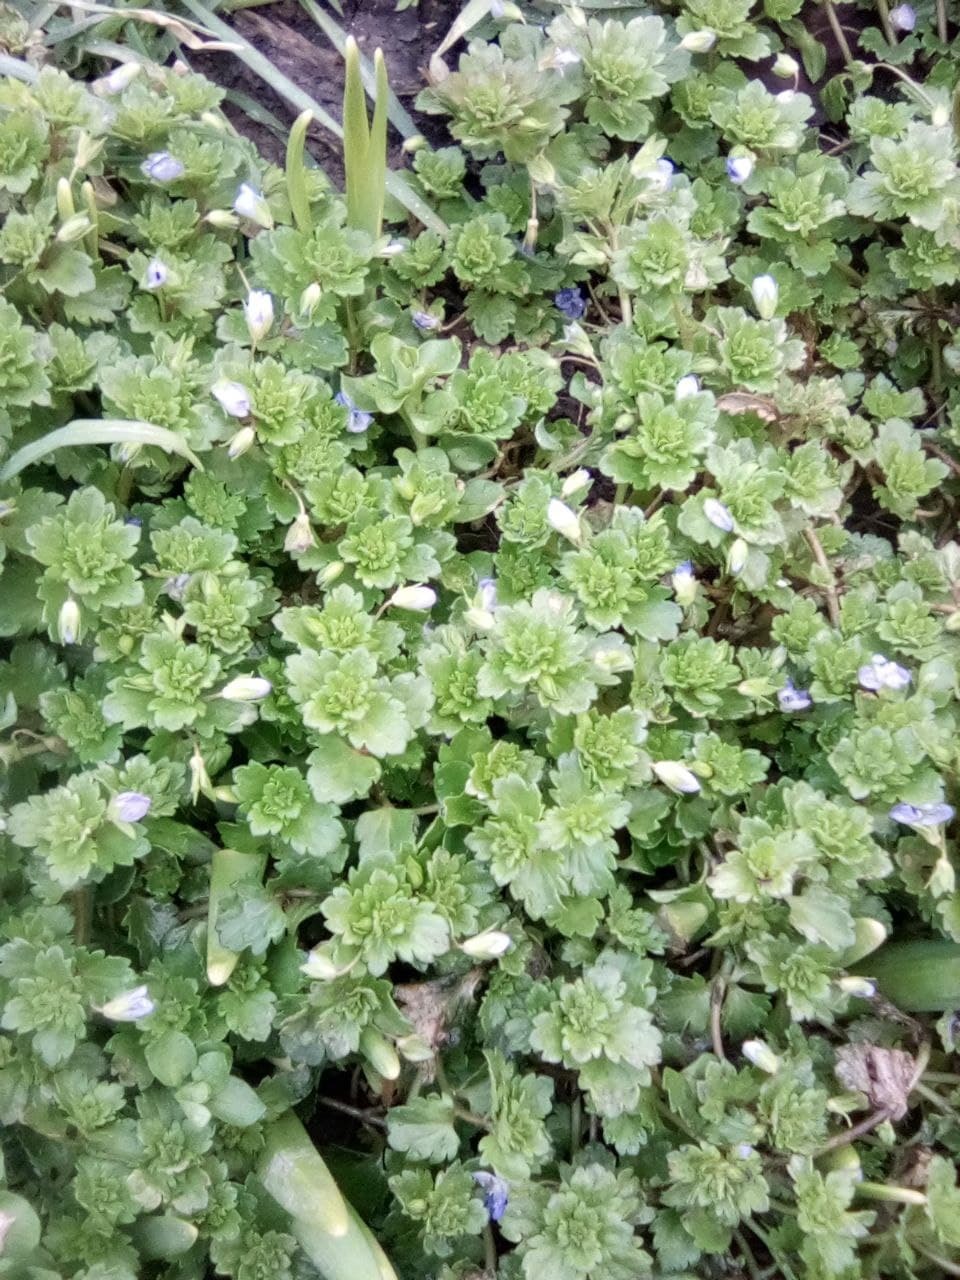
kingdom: Plantae
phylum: Tracheophyta
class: Magnoliopsida
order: Lamiales
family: Plantaginaceae
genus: Veronica
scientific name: Veronica persica
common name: Common field-speedwell
